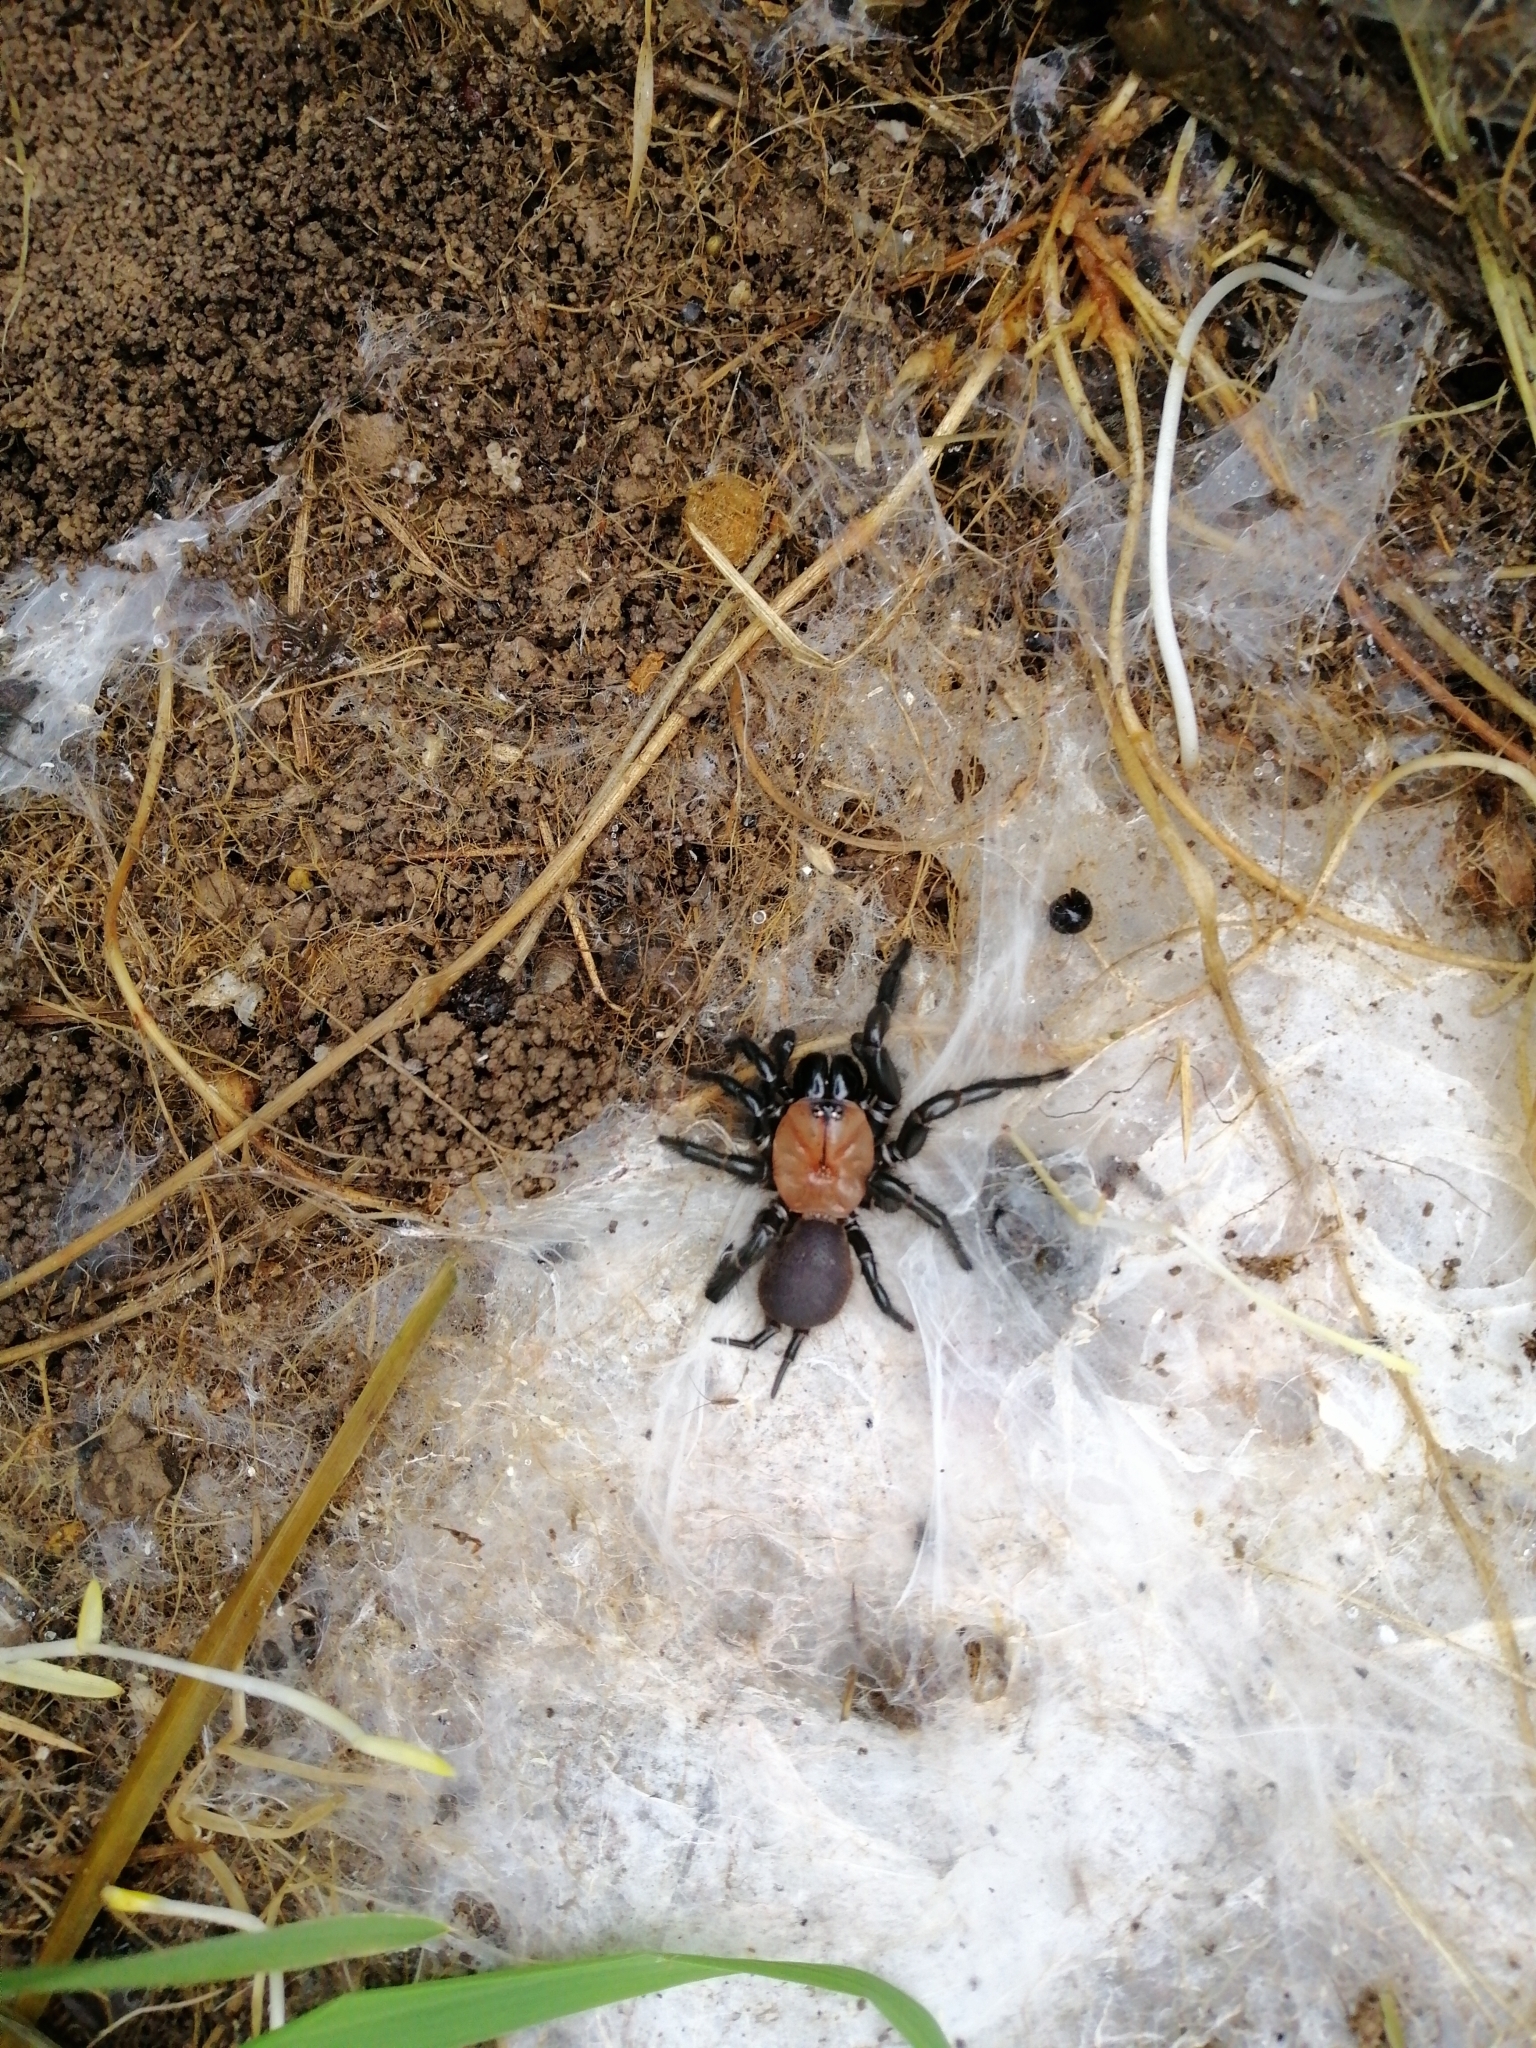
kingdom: Animalia
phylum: Arthropoda
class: Arachnida
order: Araneae
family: Porrhothelidae
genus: Porrhothele
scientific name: Porrhothele antipodiana
